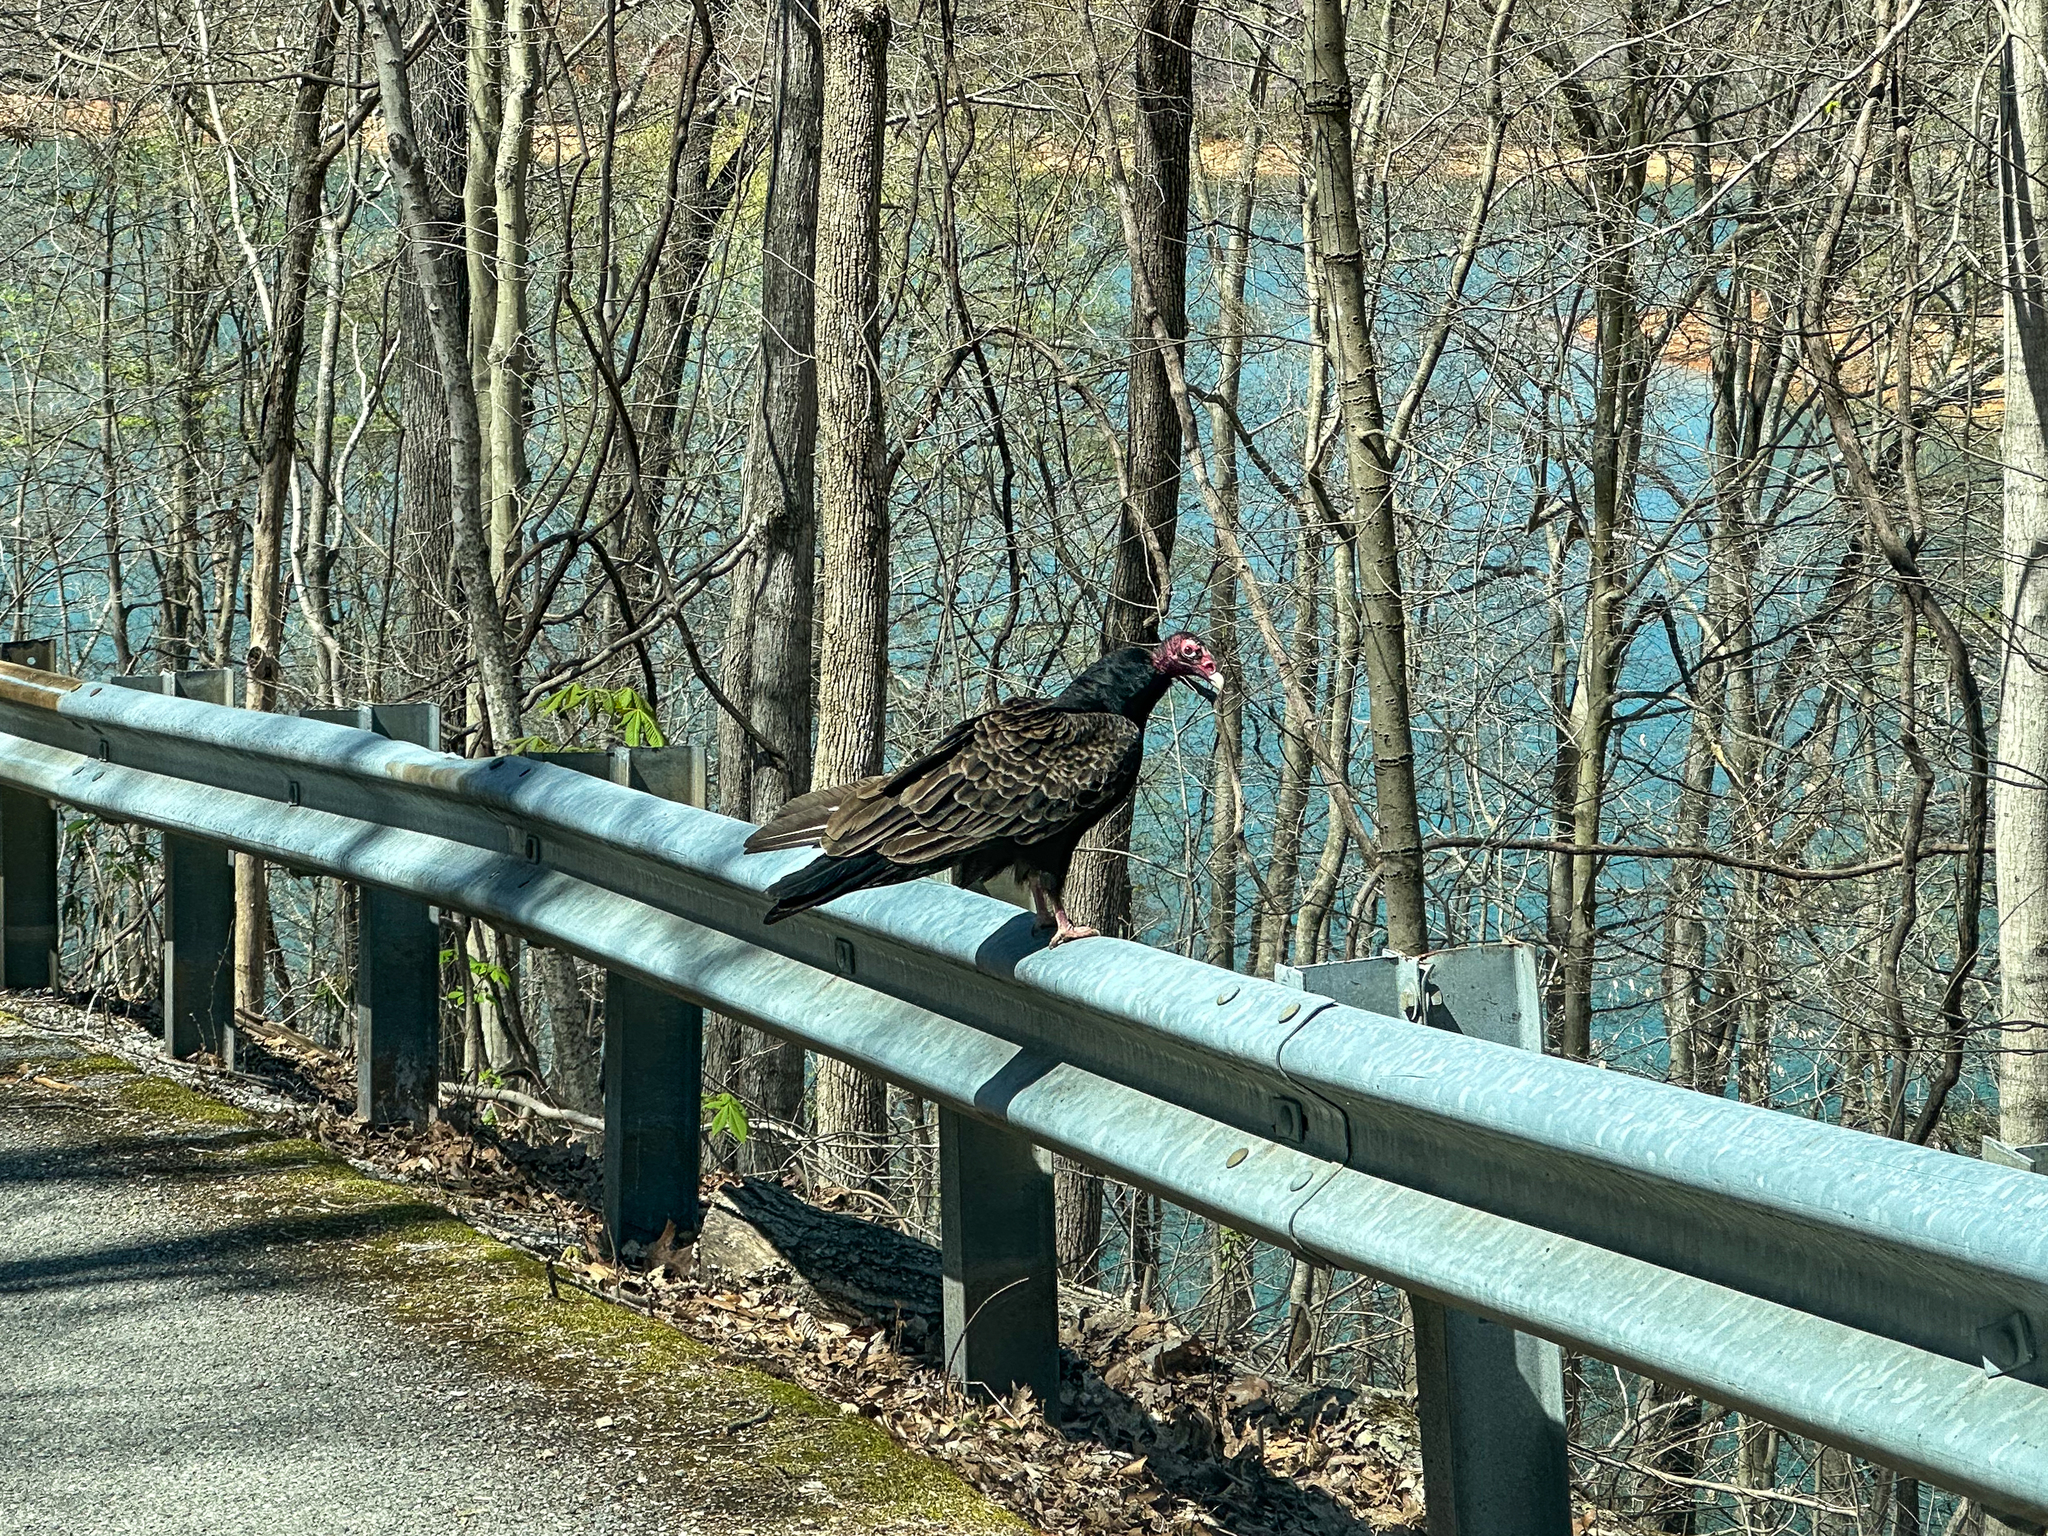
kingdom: Animalia
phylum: Chordata
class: Aves
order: Accipitriformes
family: Cathartidae
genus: Cathartes
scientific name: Cathartes aura
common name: Turkey vulture
